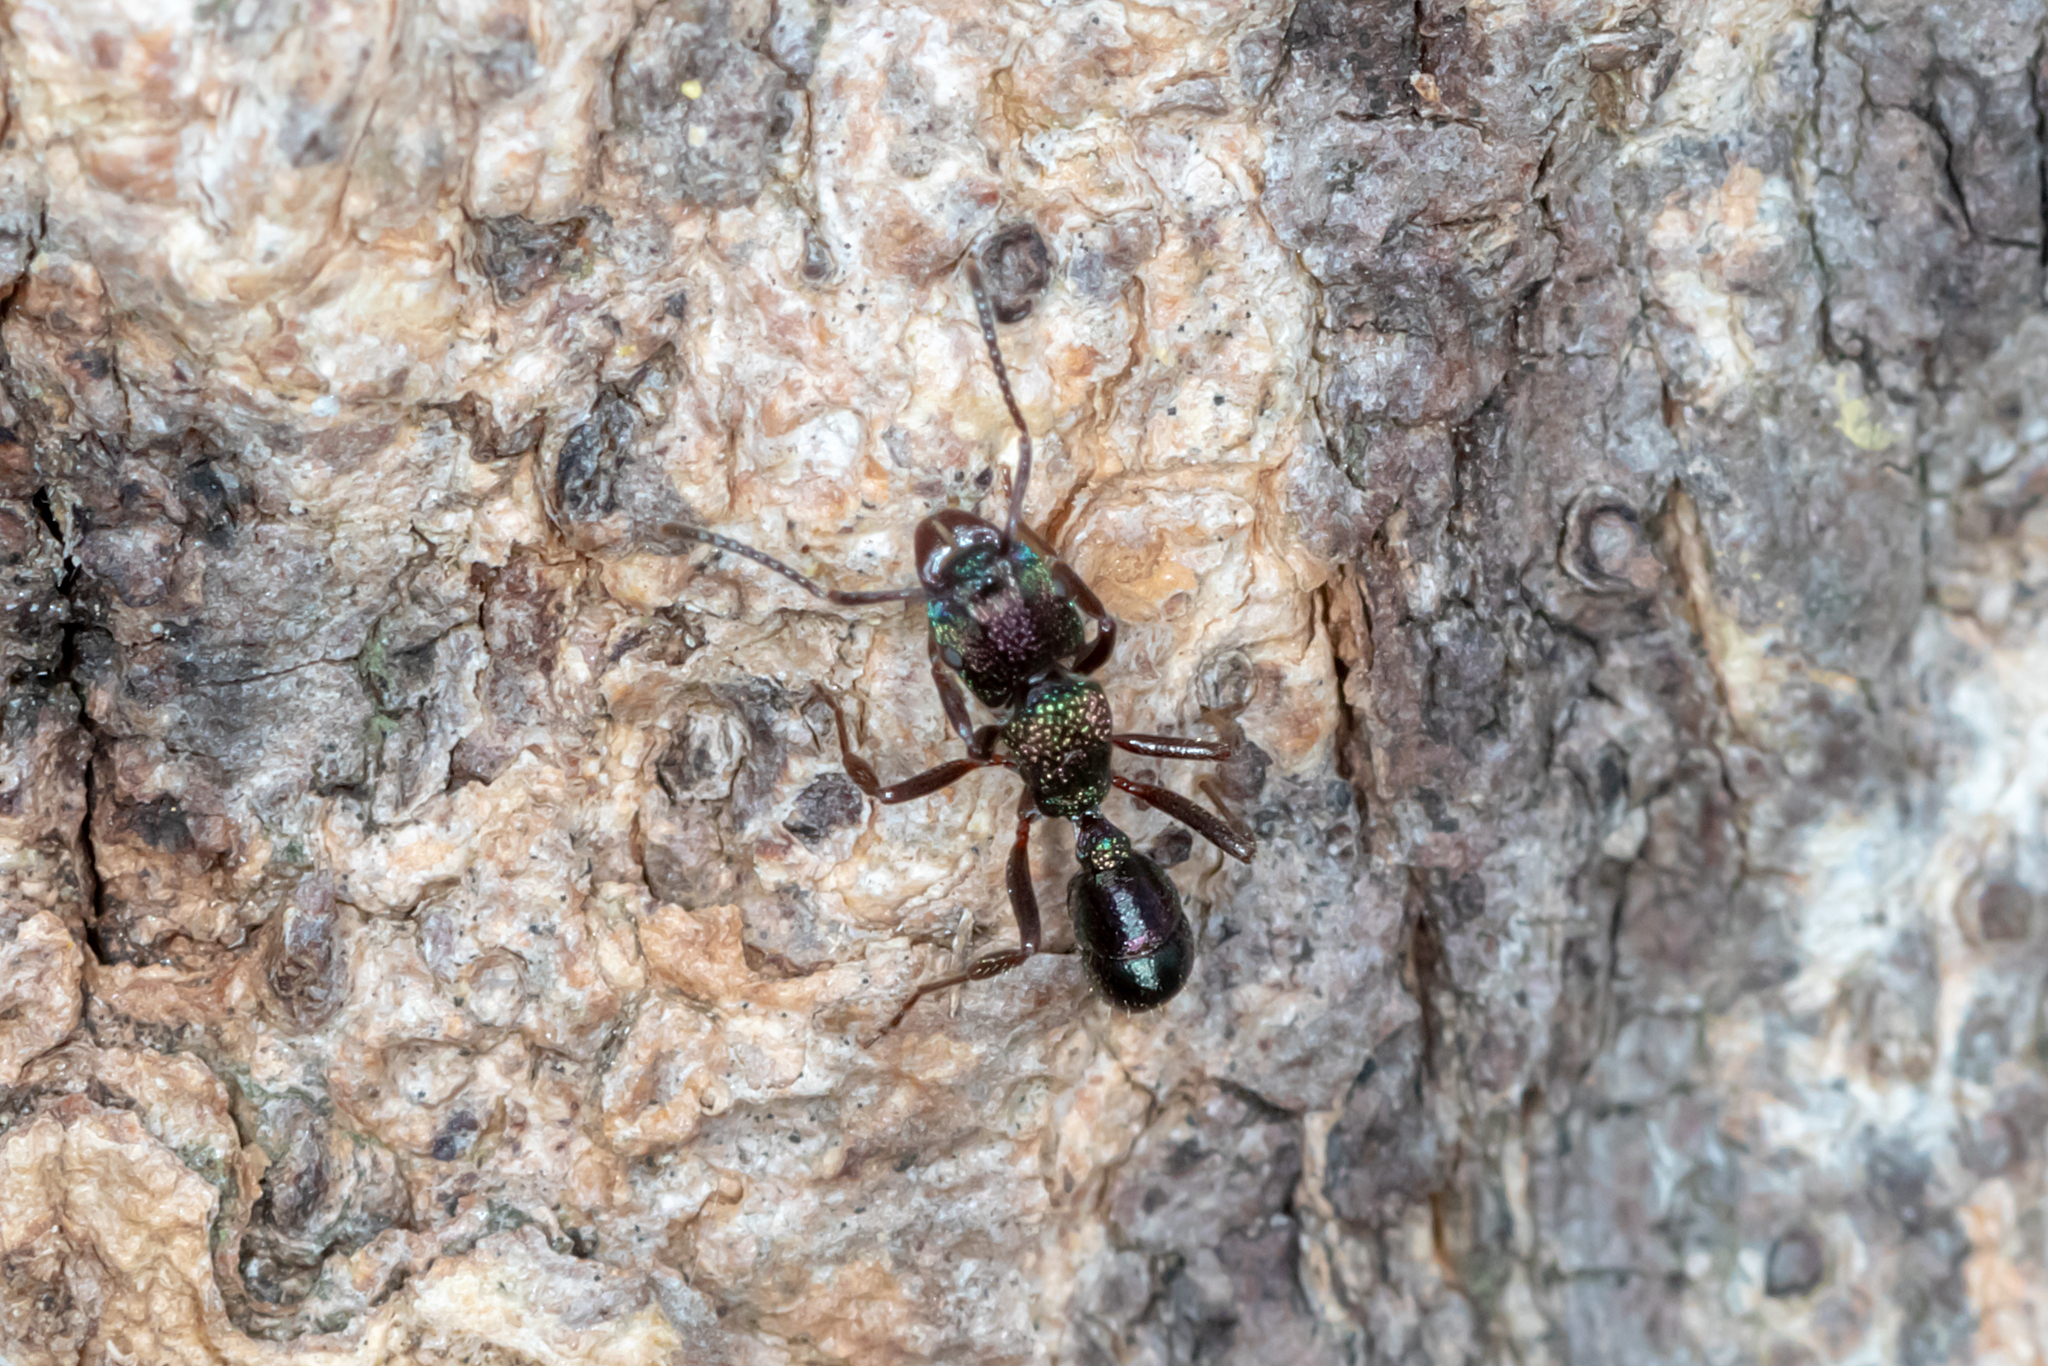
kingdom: Animalia
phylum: Arthropoda
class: Insecta
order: Hymenoptera
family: Formicidae
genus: Rhytidoponera
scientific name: Rhytidoponera metallica
